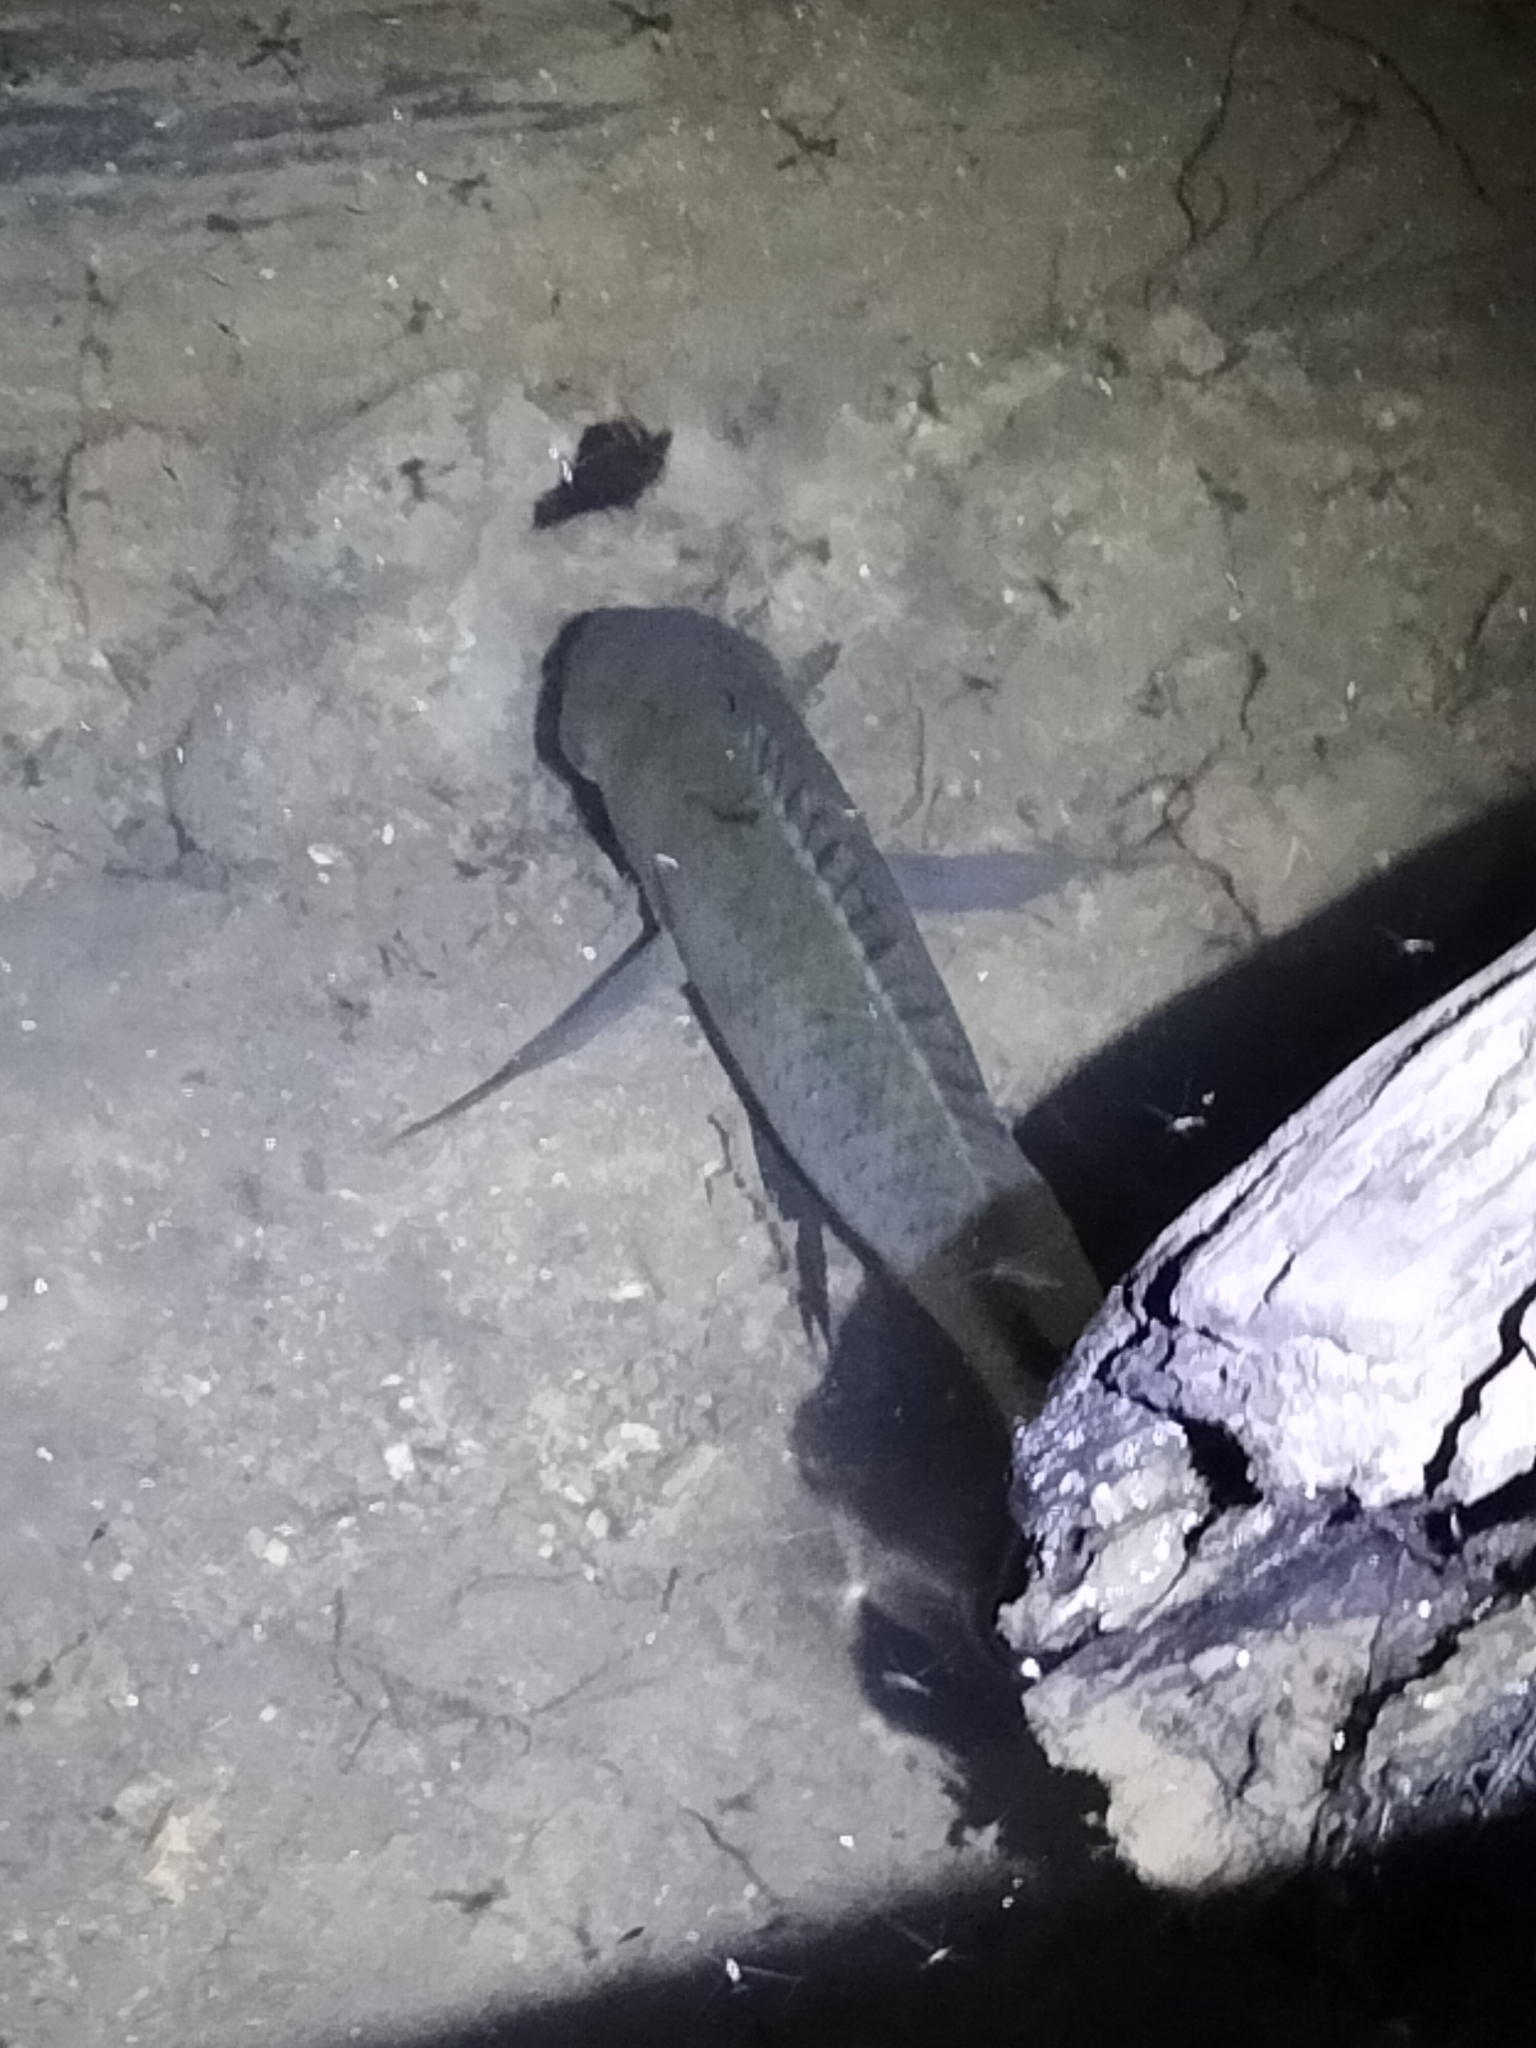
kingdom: Animalia
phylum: Chordata
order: Perciformes
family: Cichlidae
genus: Pelmatolapia
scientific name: Pelmatolapia mariae
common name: Spotted tilapia
